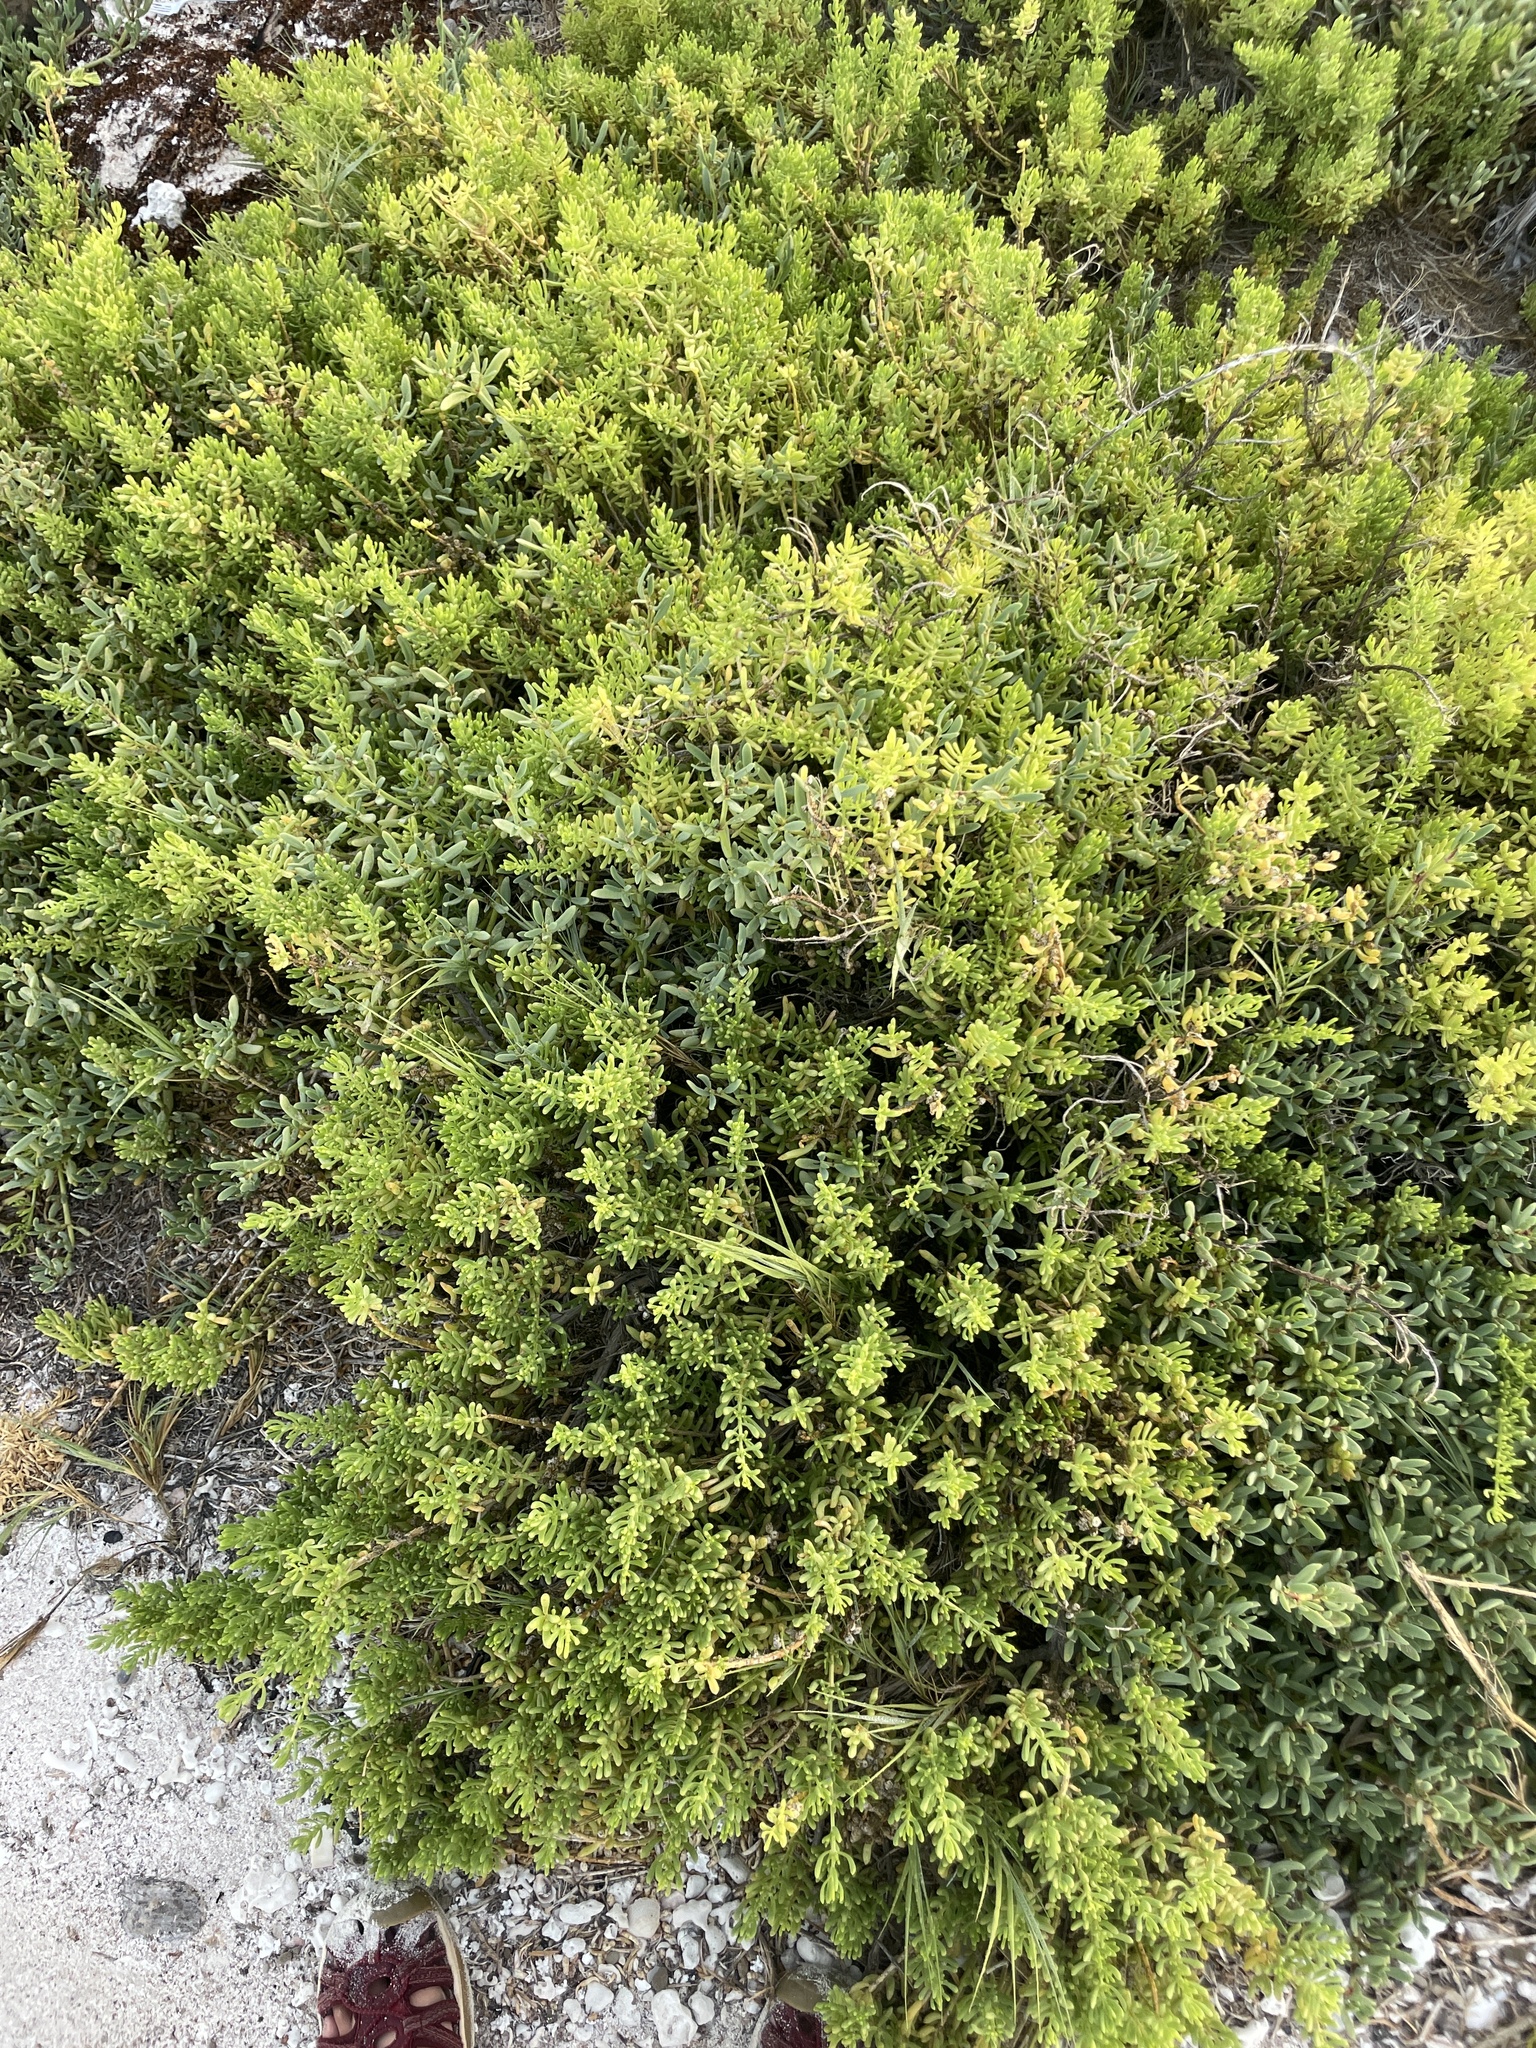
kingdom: Plantae
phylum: Tracheophyta
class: Magnoliopsida
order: Brassicales
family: Bataceae
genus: Batis
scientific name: Batis maritima
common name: Turtleweed
